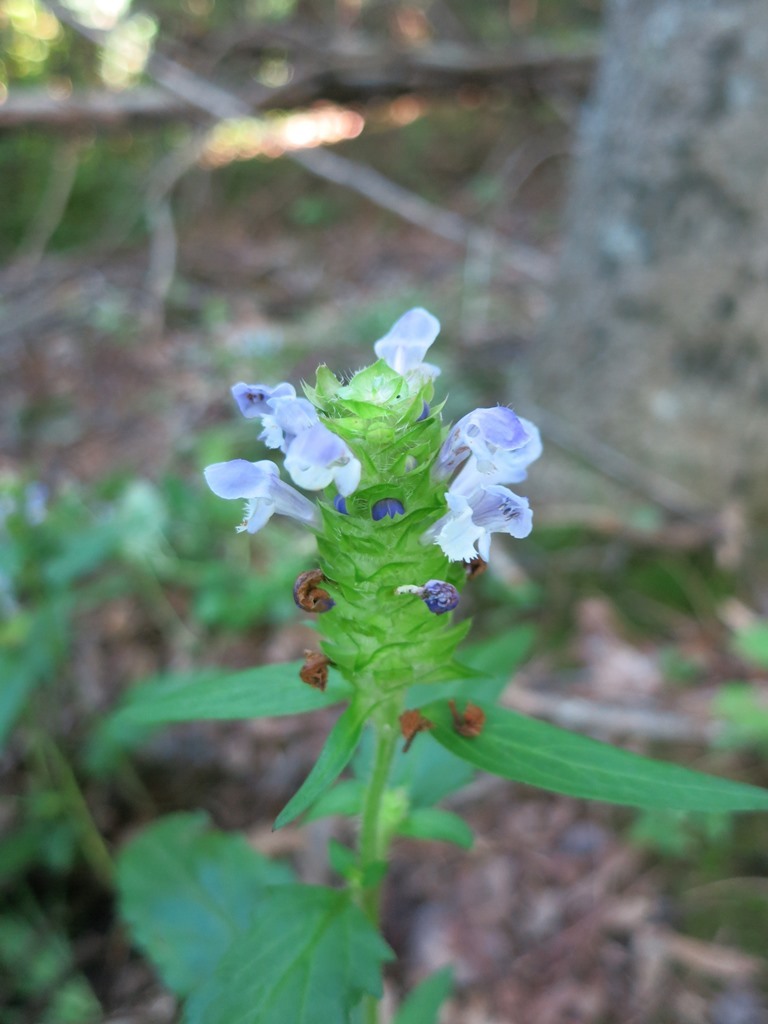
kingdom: Plantae
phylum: Tracheophyta
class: Magnoliopsida
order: Lamiales
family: Lamiaceae
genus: Prunella
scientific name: Prunella vulgaris
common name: Heal-all
